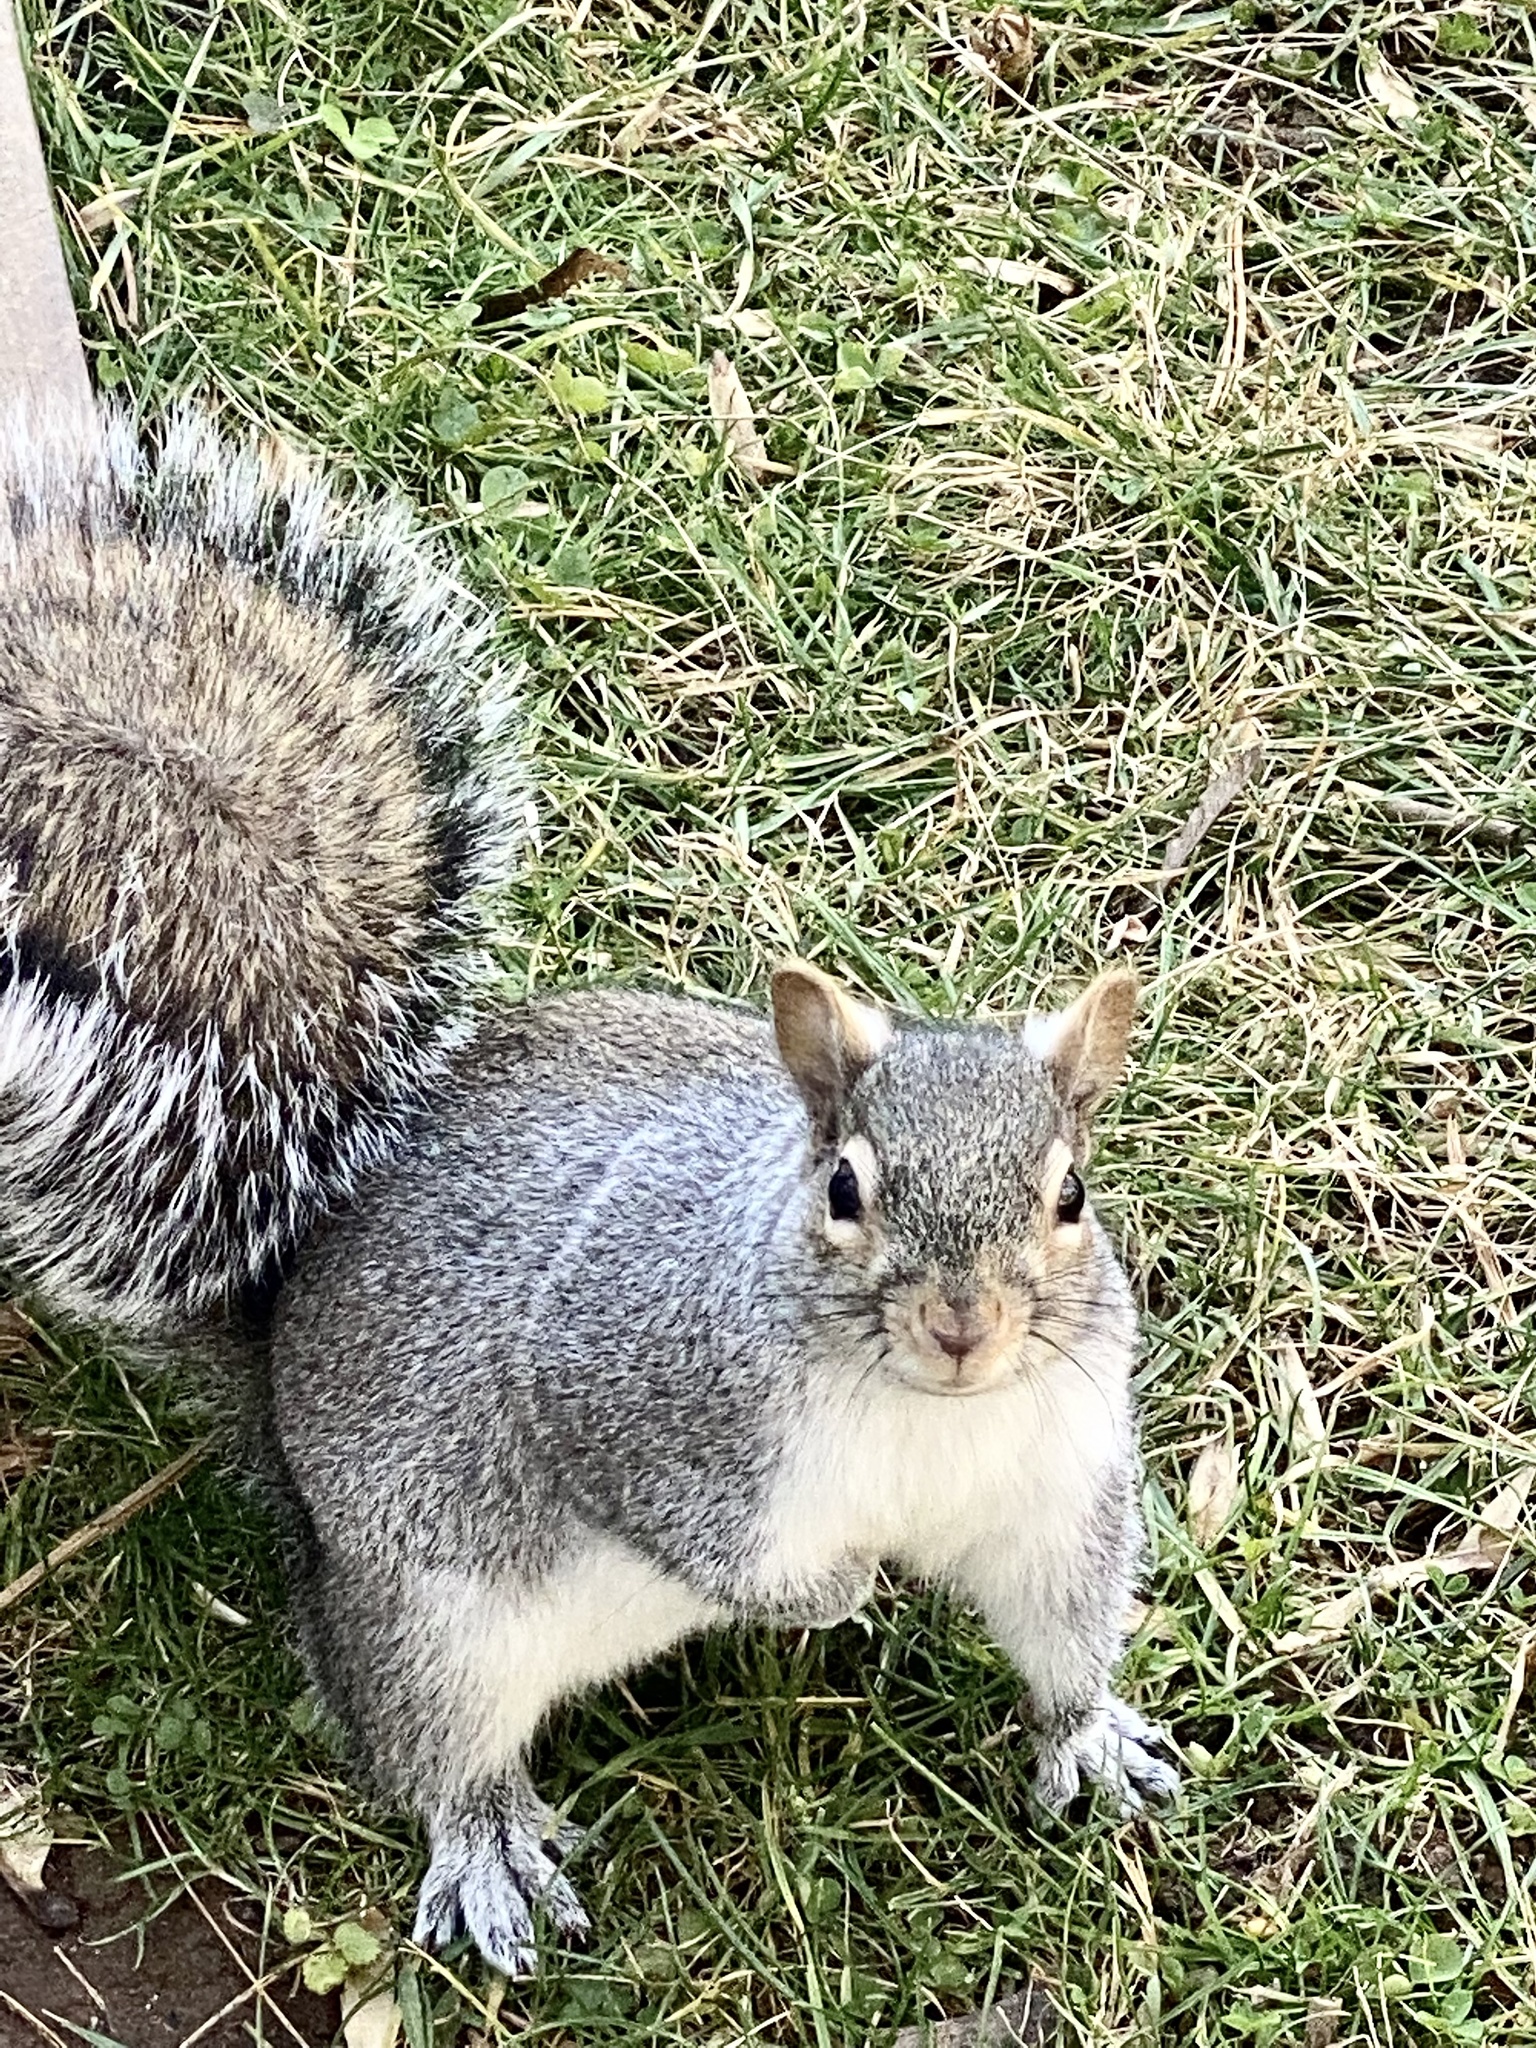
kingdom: Animalia
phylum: Chordata
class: Mammalia
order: Rodentia
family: Sciuridae
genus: Sciurus
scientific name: Sciurus carolinensis
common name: Eastern gray squirrel
